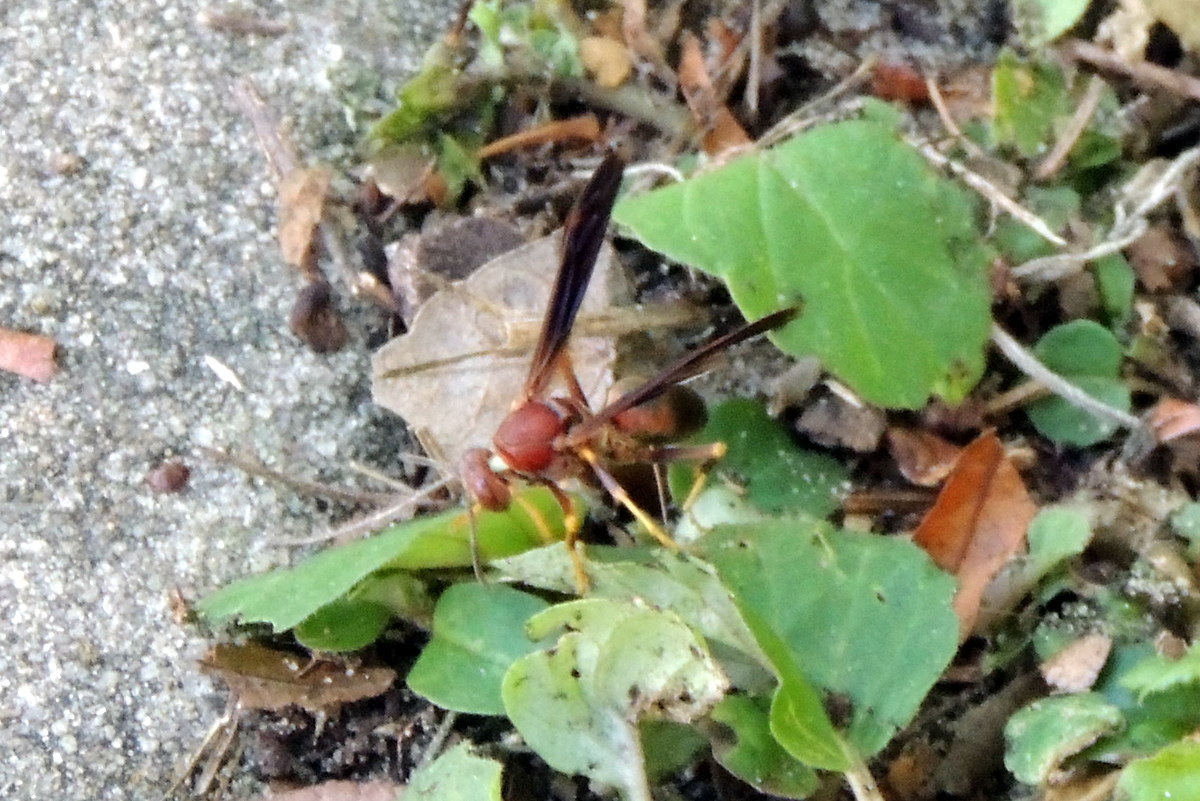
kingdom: Animalia
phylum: Arthropoda
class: Insecta
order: Hymenoptera
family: Eumenidae
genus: Polistes
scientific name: Polistes metricus
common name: Metric paper wasp
